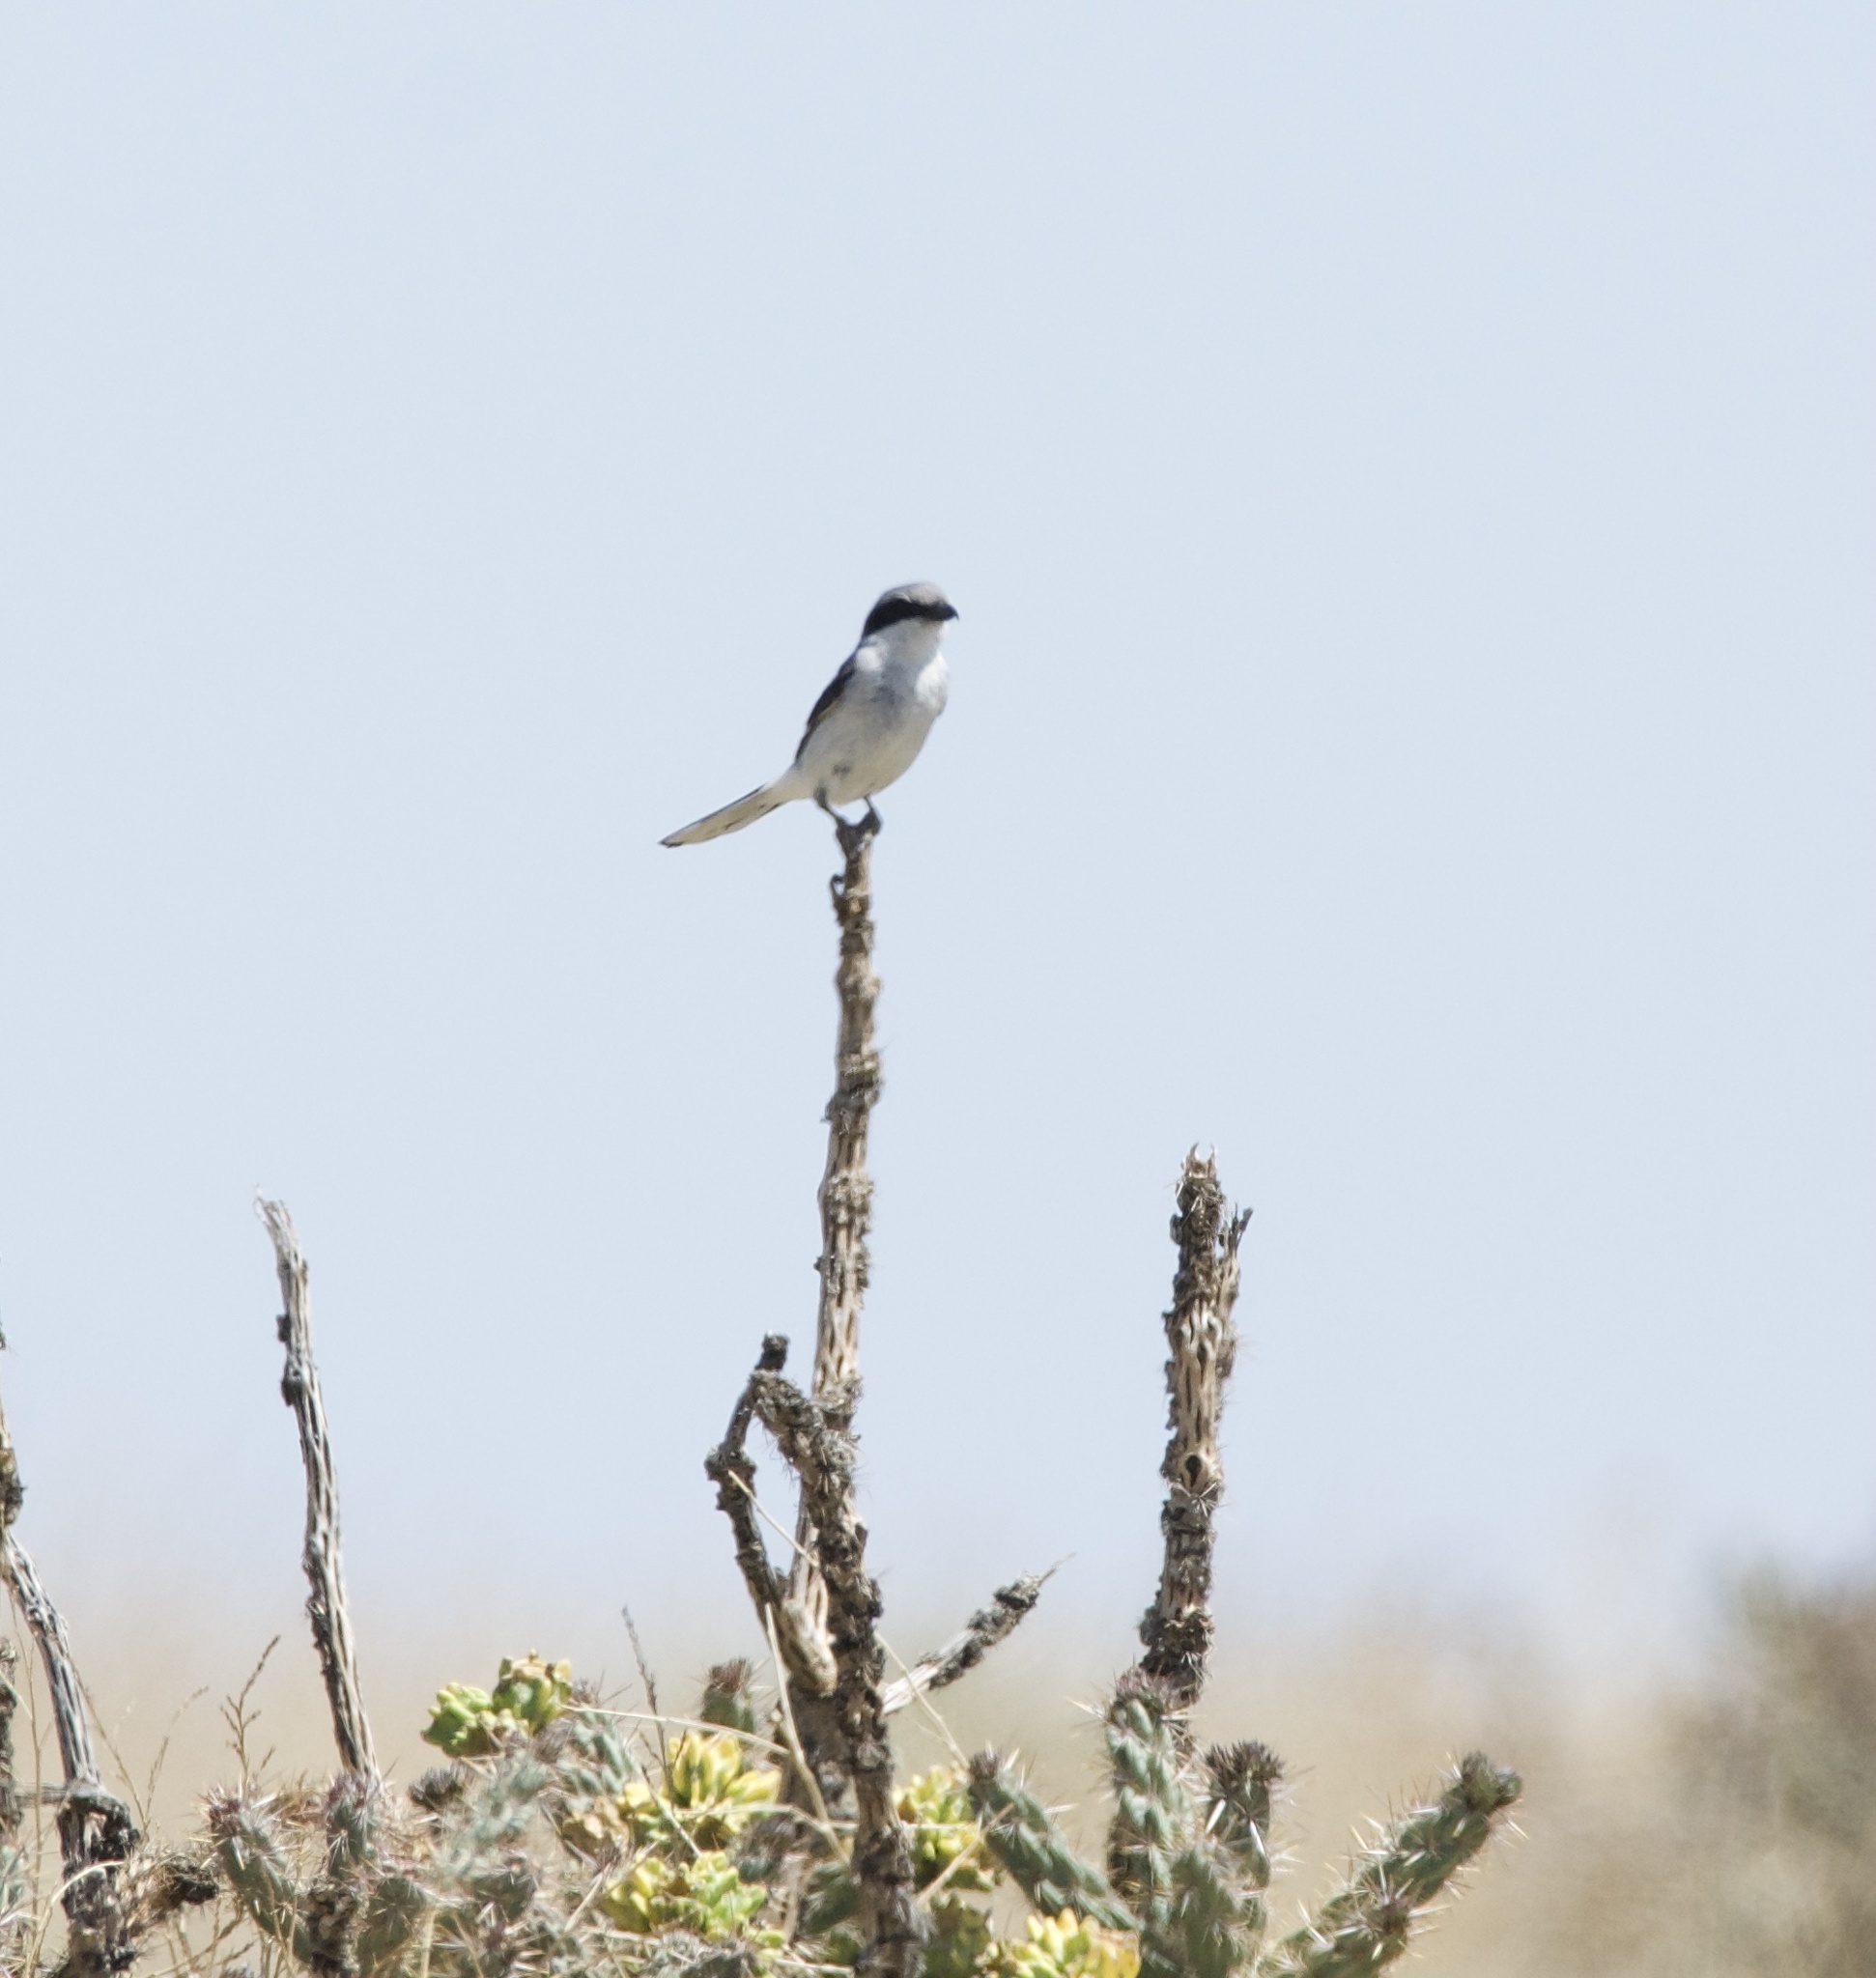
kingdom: Animalia
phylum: Chordata
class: Aves
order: Passeriformes
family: Laniidae
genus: Lanius
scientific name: Lanius ludovicianus
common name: Loggerhead shrike
